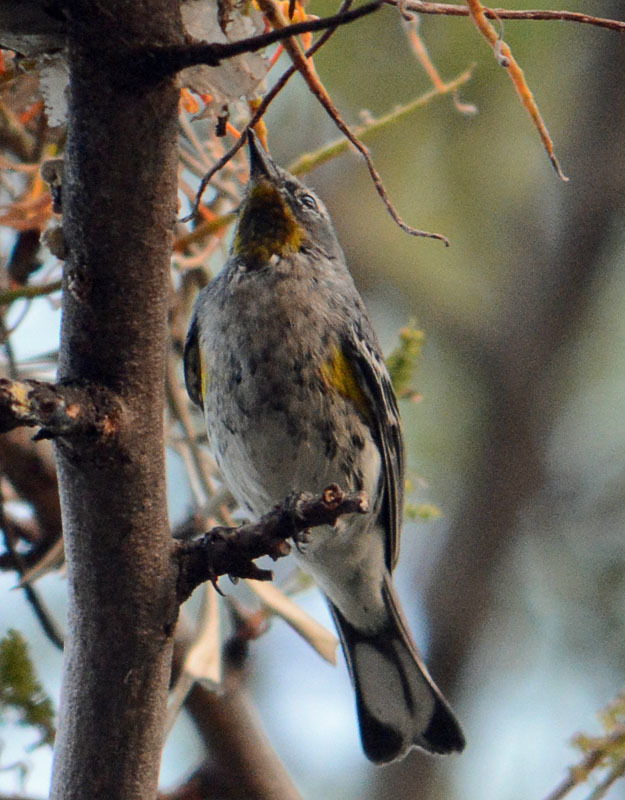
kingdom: Animalia
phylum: Chordata
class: Aves
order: Passeriformes
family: Parulidae
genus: Setophaga
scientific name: Setophaga auduboni
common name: Audubon's warbler
